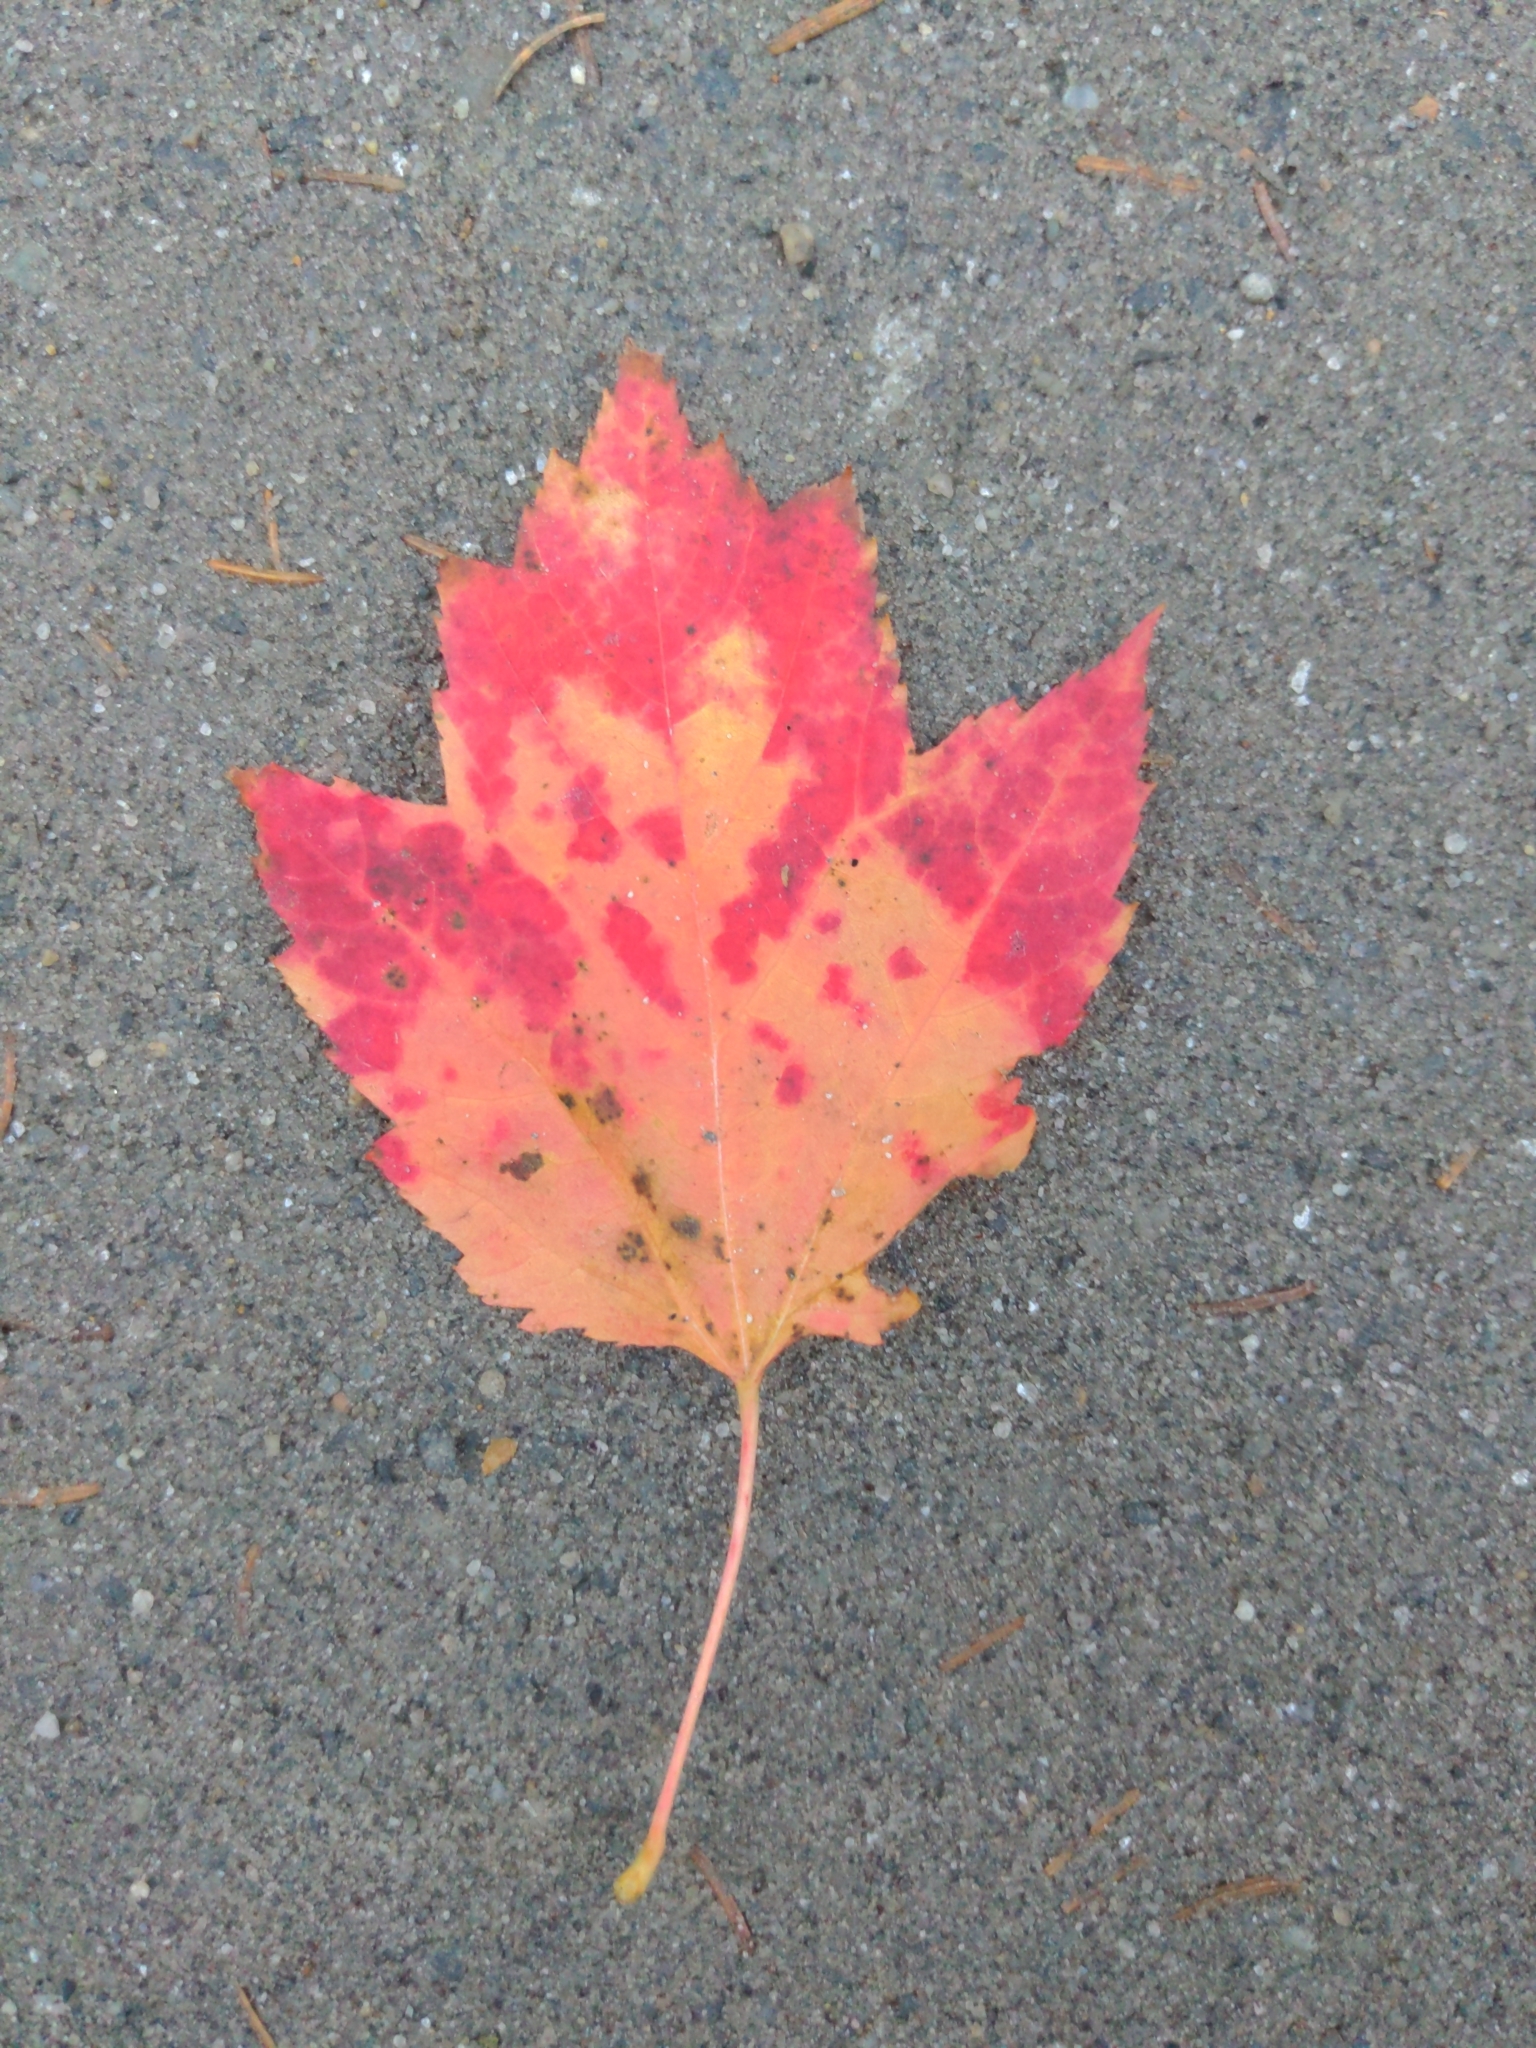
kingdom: Plantae
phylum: Tracheophyta
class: Magnoliopsida
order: Sapindales
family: Sapindaceae
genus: Acer
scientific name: Acer rubrum
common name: Red maple
